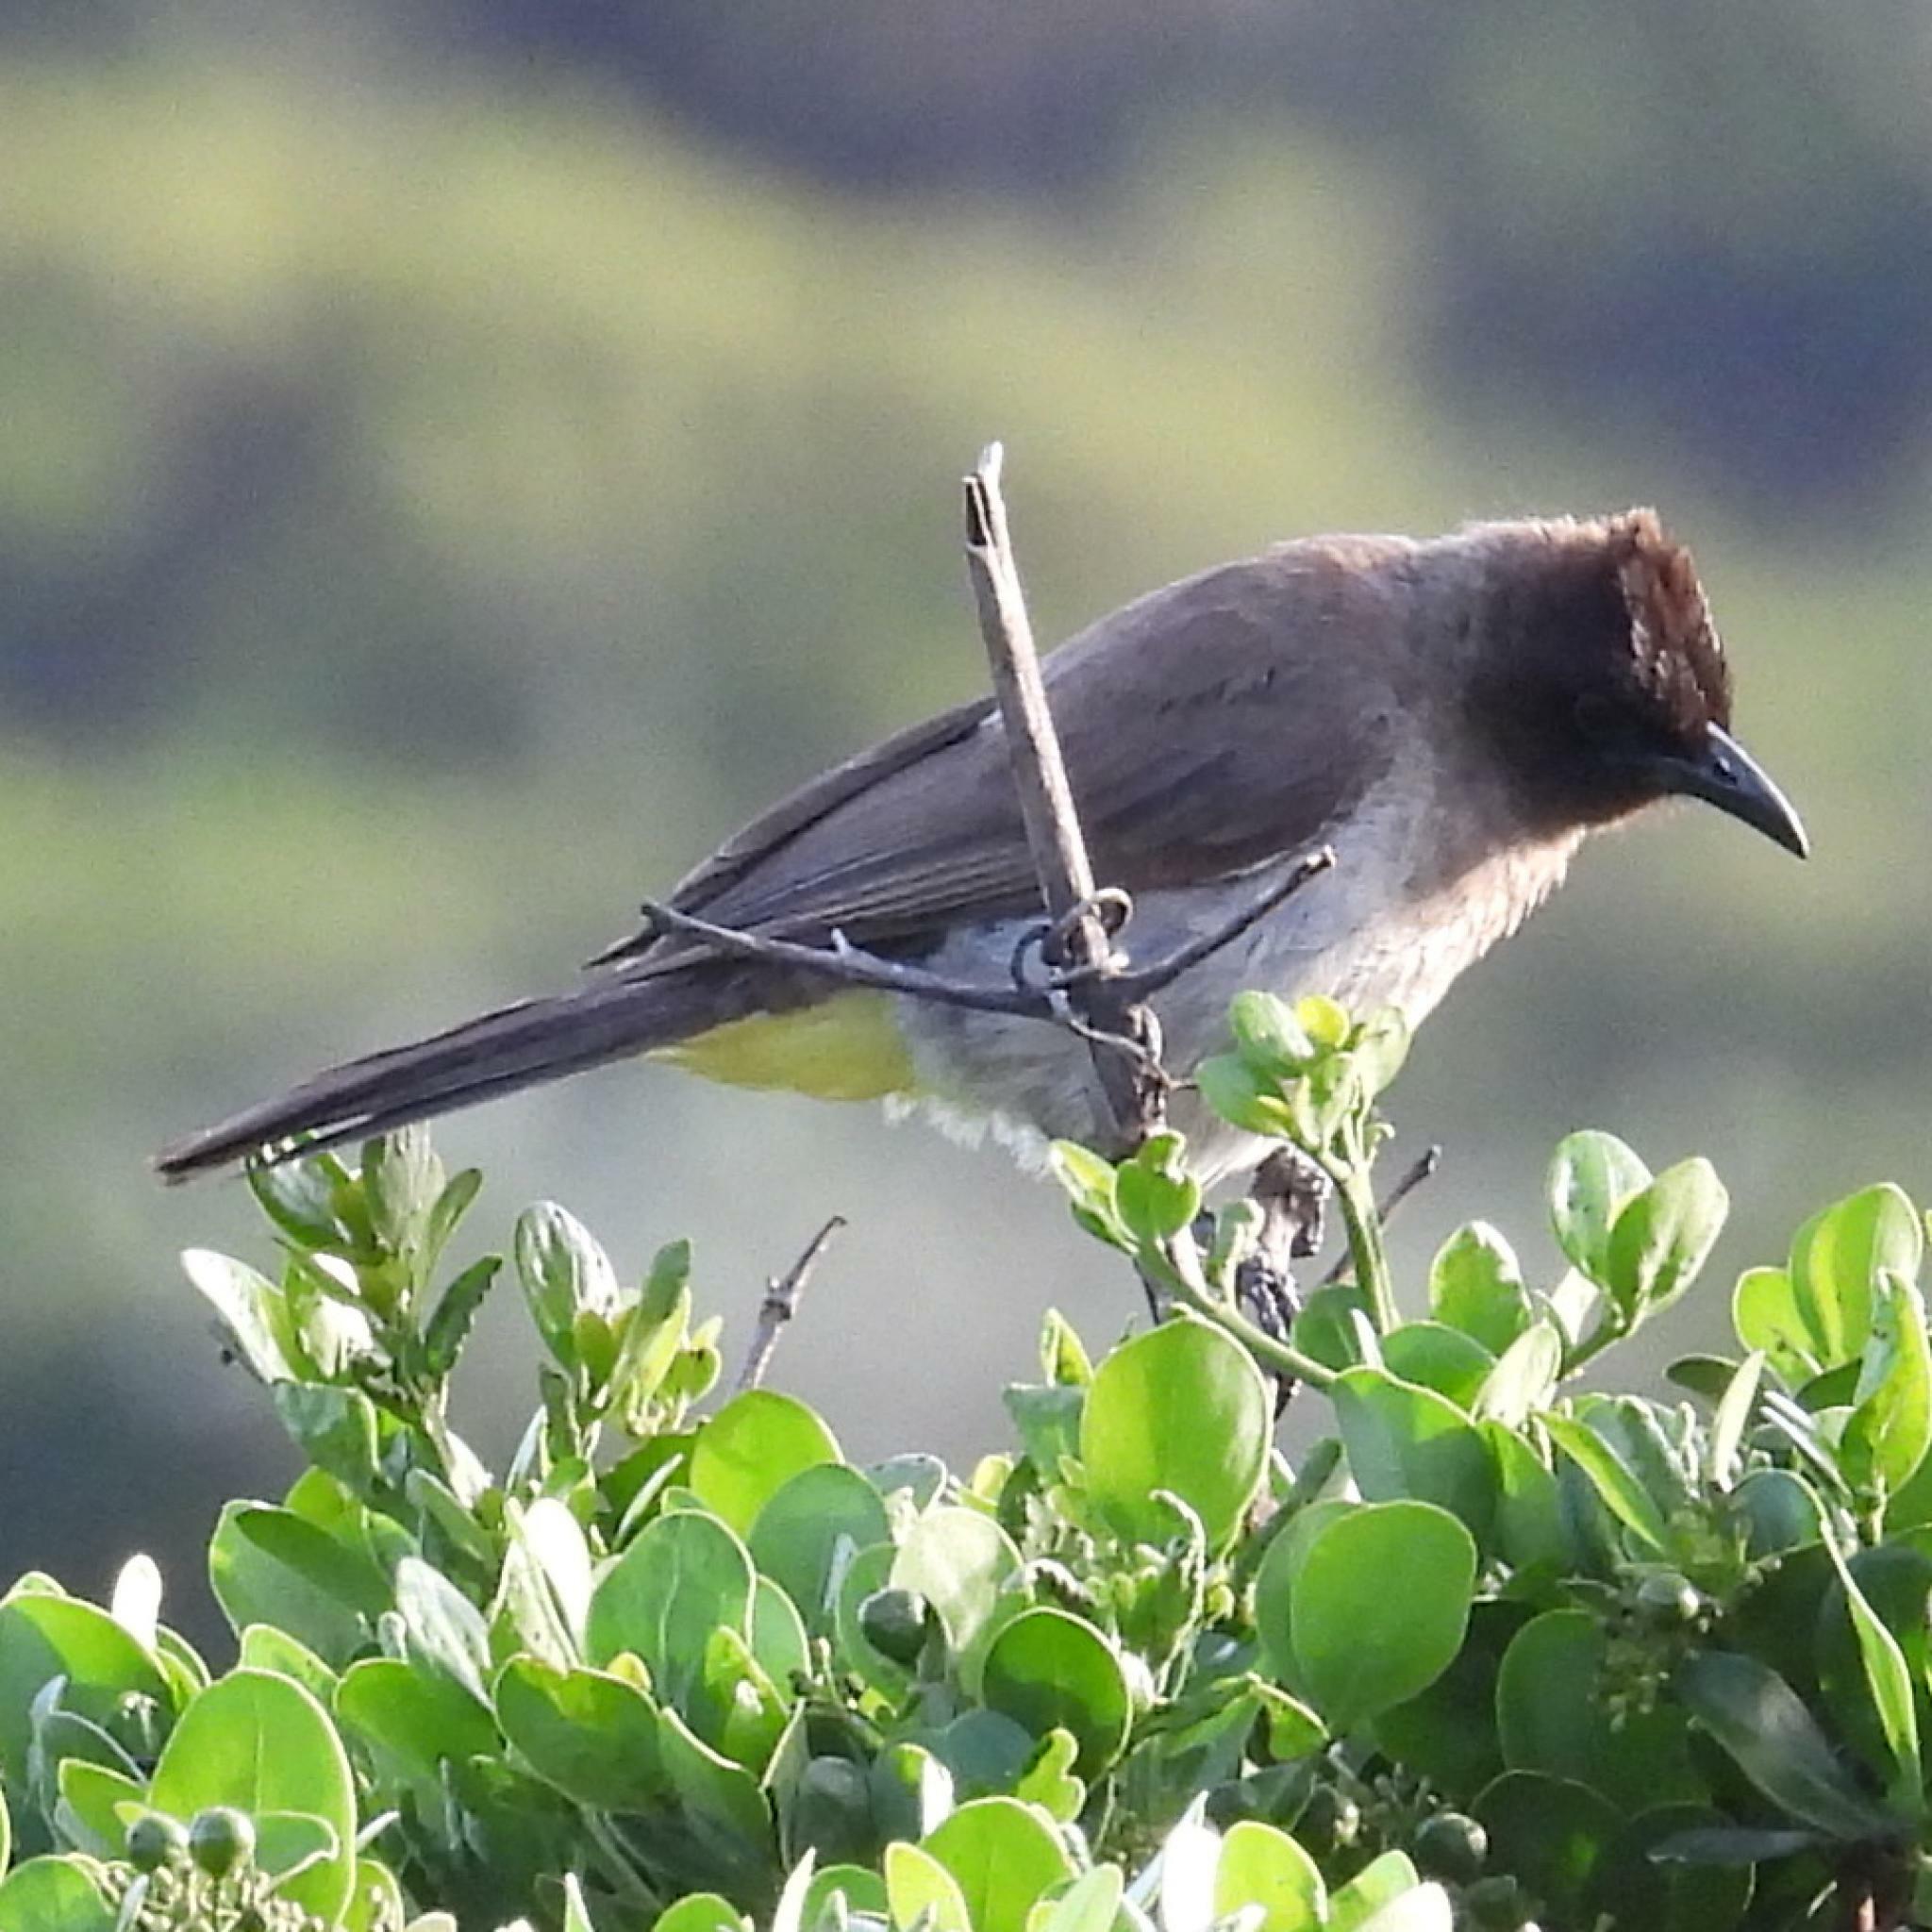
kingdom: Animalia
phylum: Chordata
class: Aves
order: Passeriformes
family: Pycnonotidae
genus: Pycnonotus
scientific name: Pycnonotus barbatus
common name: Common bulbul
